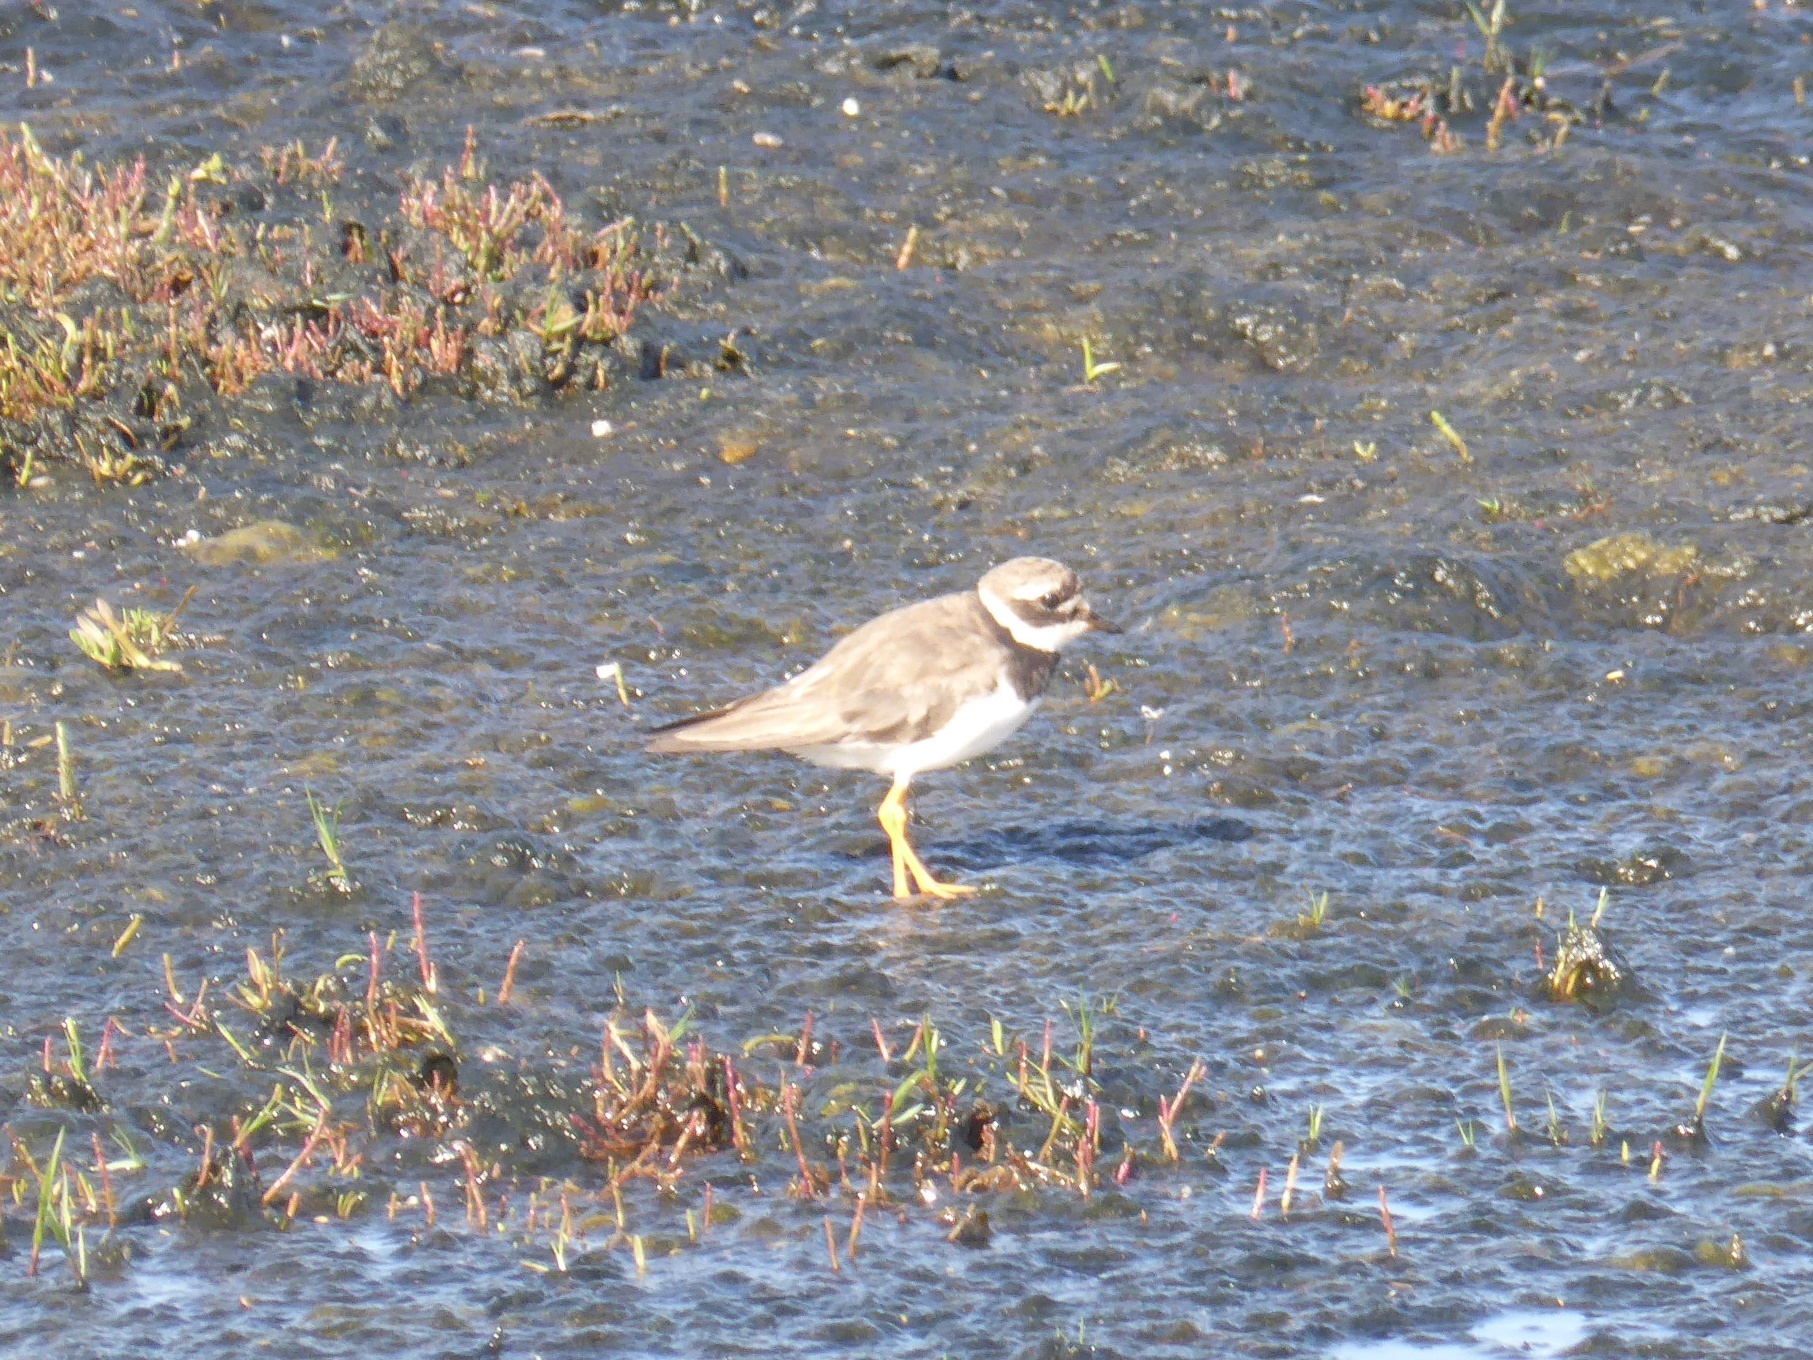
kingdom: Animalia
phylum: Chordata
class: Aves
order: Charadriiformes
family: Charadriidae
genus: Charadrius
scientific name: Charadrius hiaticula
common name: Common ringed plover
